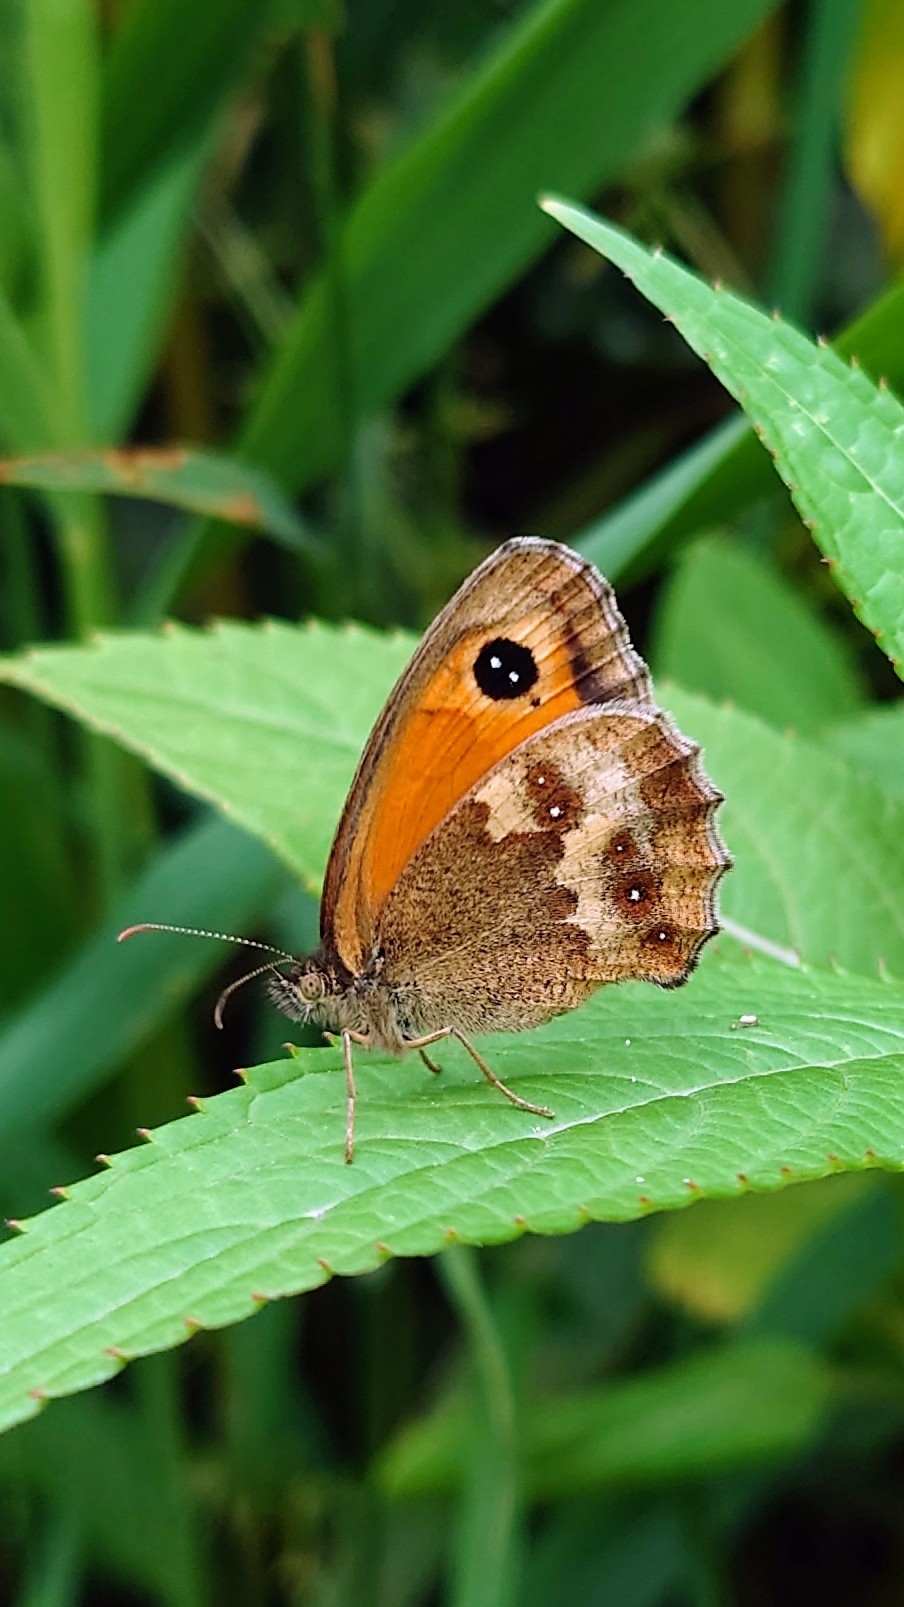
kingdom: Animalia
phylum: Arthropoda
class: Insecta
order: Lepidoptera
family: Nymphalidae
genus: Pyronia
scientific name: Pyronia tithonus
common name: Gatekeeper
